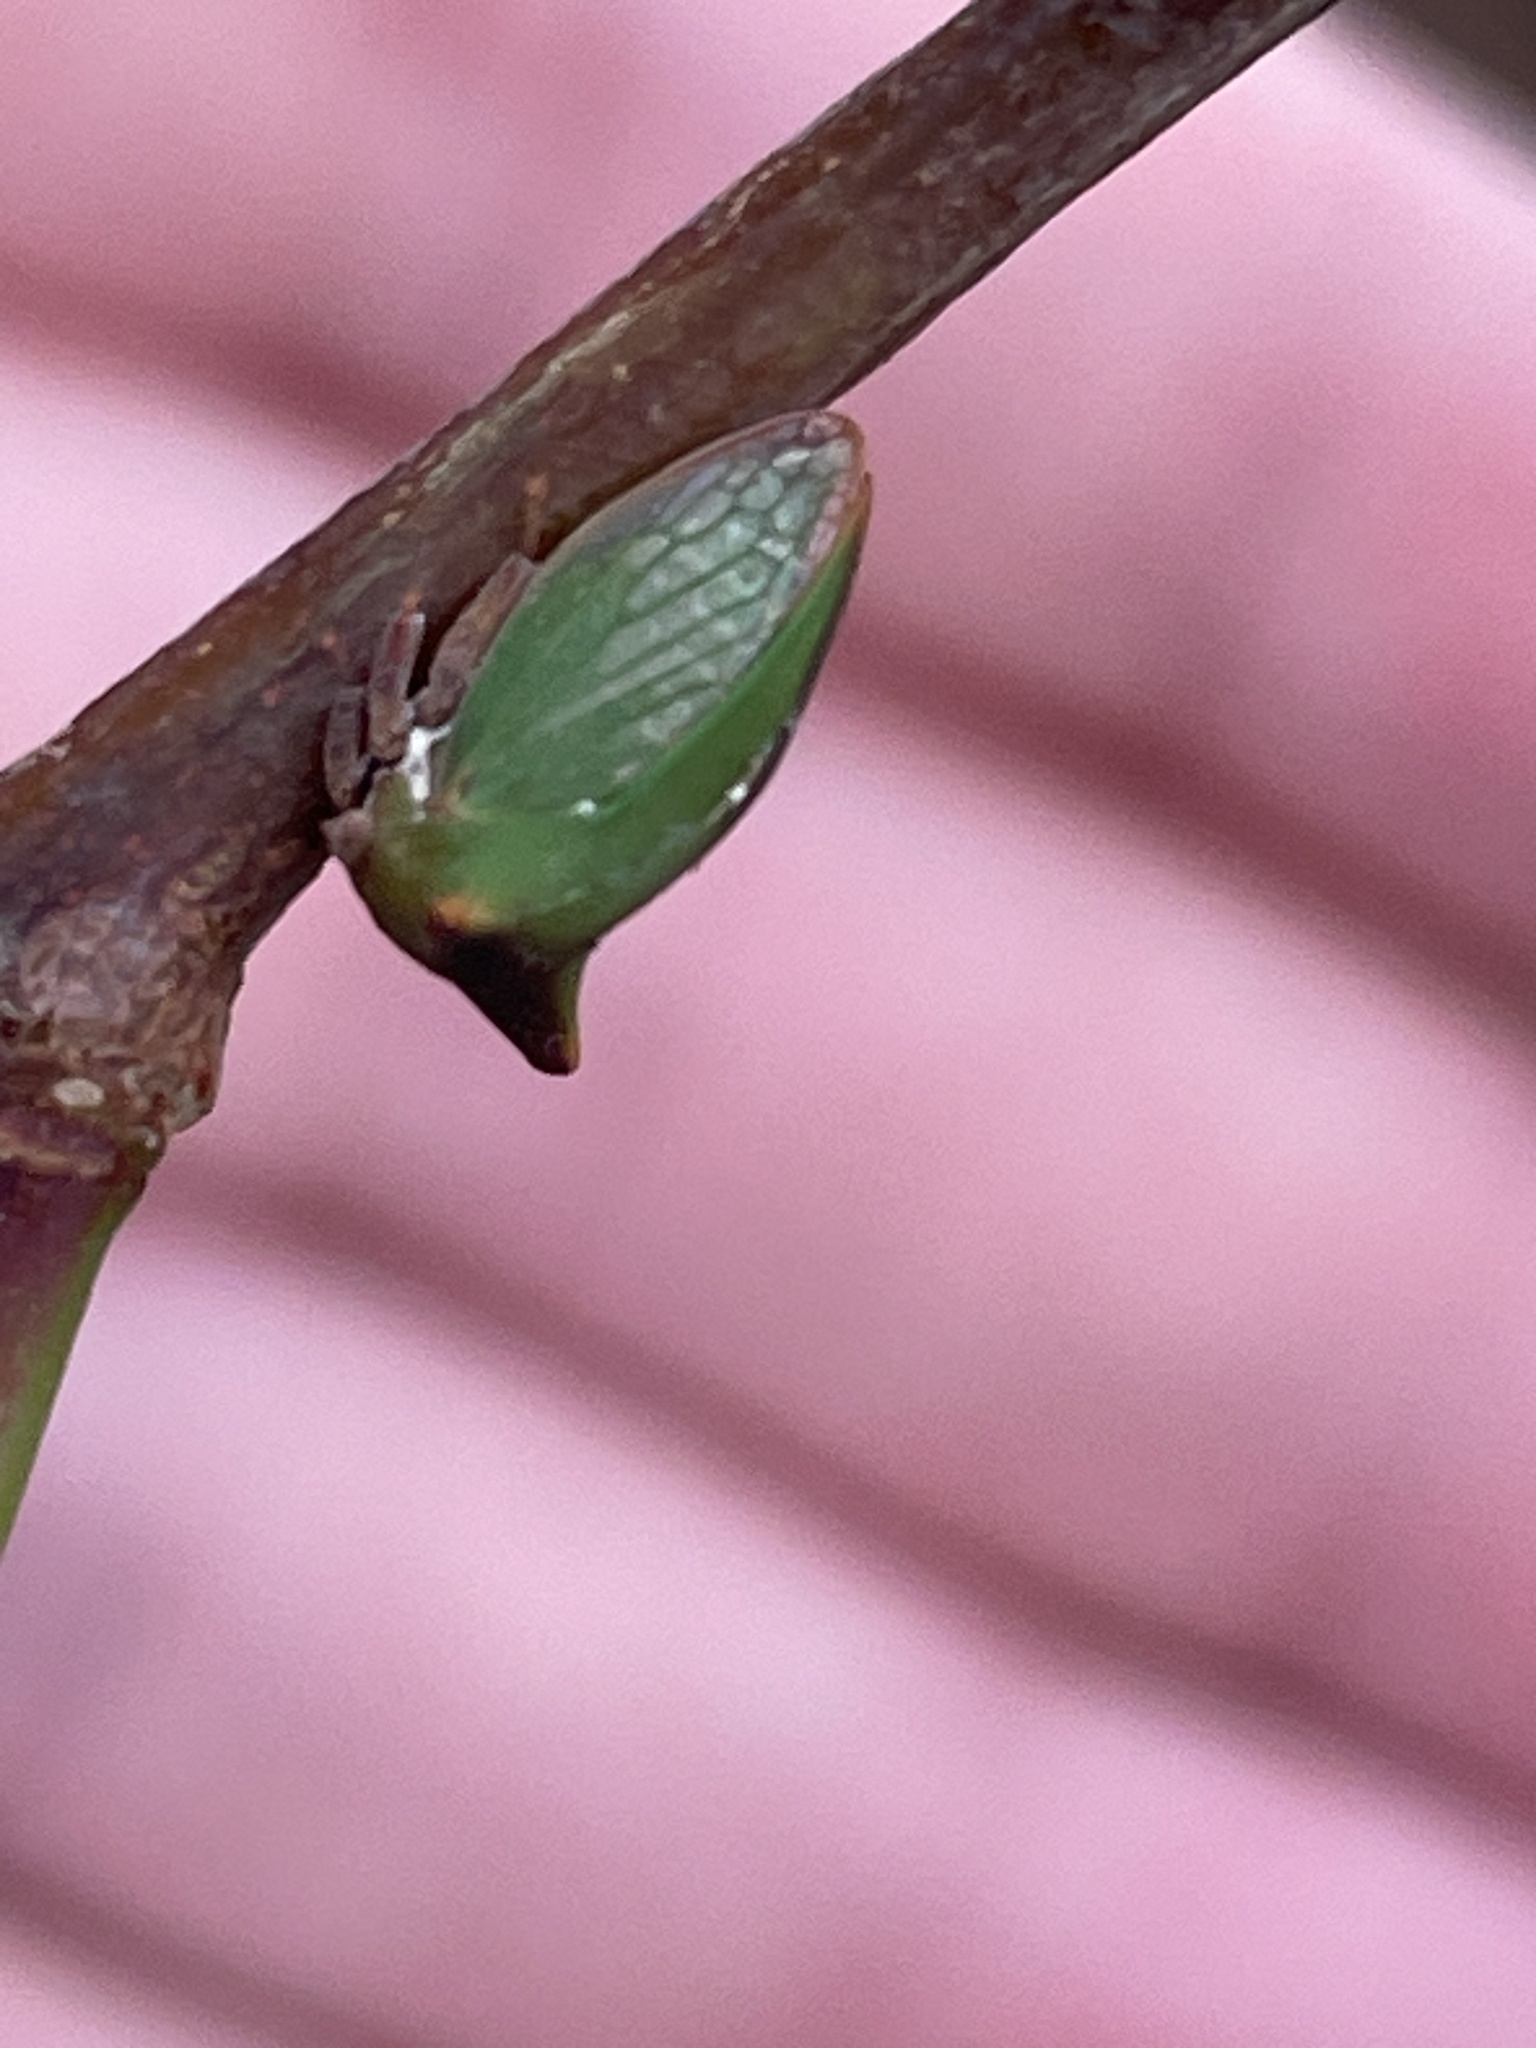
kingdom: Animalia
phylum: Arthropoda
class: Insecta
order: Hemiptera
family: Membracidae
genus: Sextius
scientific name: Sextius virescens
